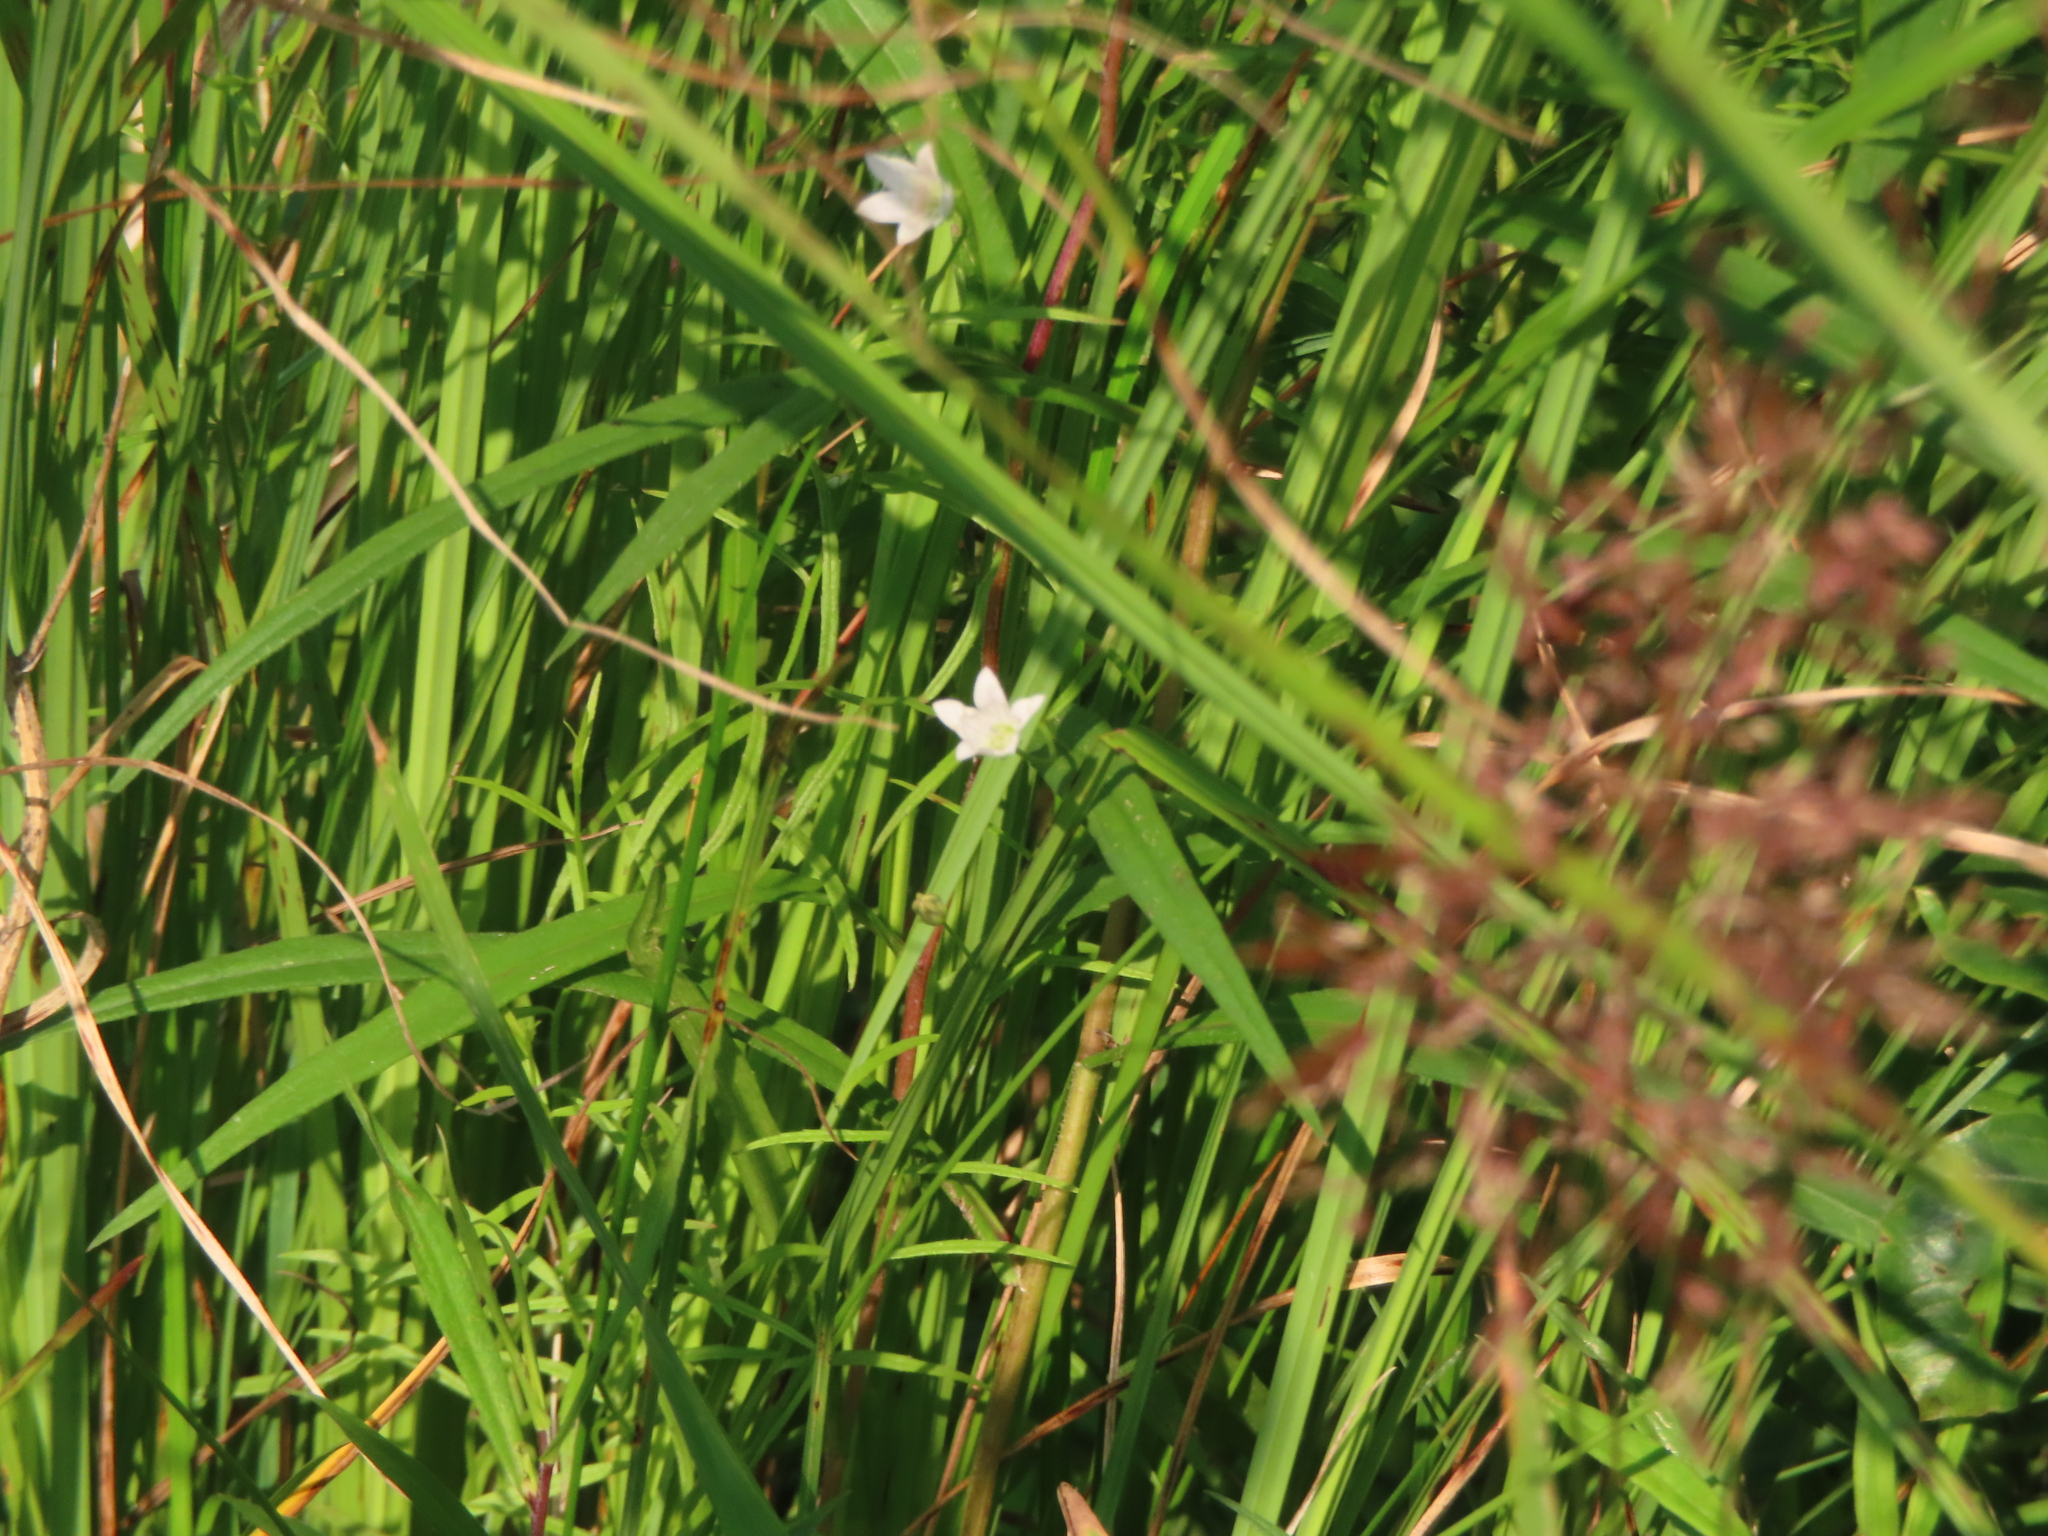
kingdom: Plantae
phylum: Tracheophyta
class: Magnoliopsida
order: Asterales
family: Campanulaceae
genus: Palustricodon
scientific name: Palustricodon aparinoides
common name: Bedstraw bellflower
